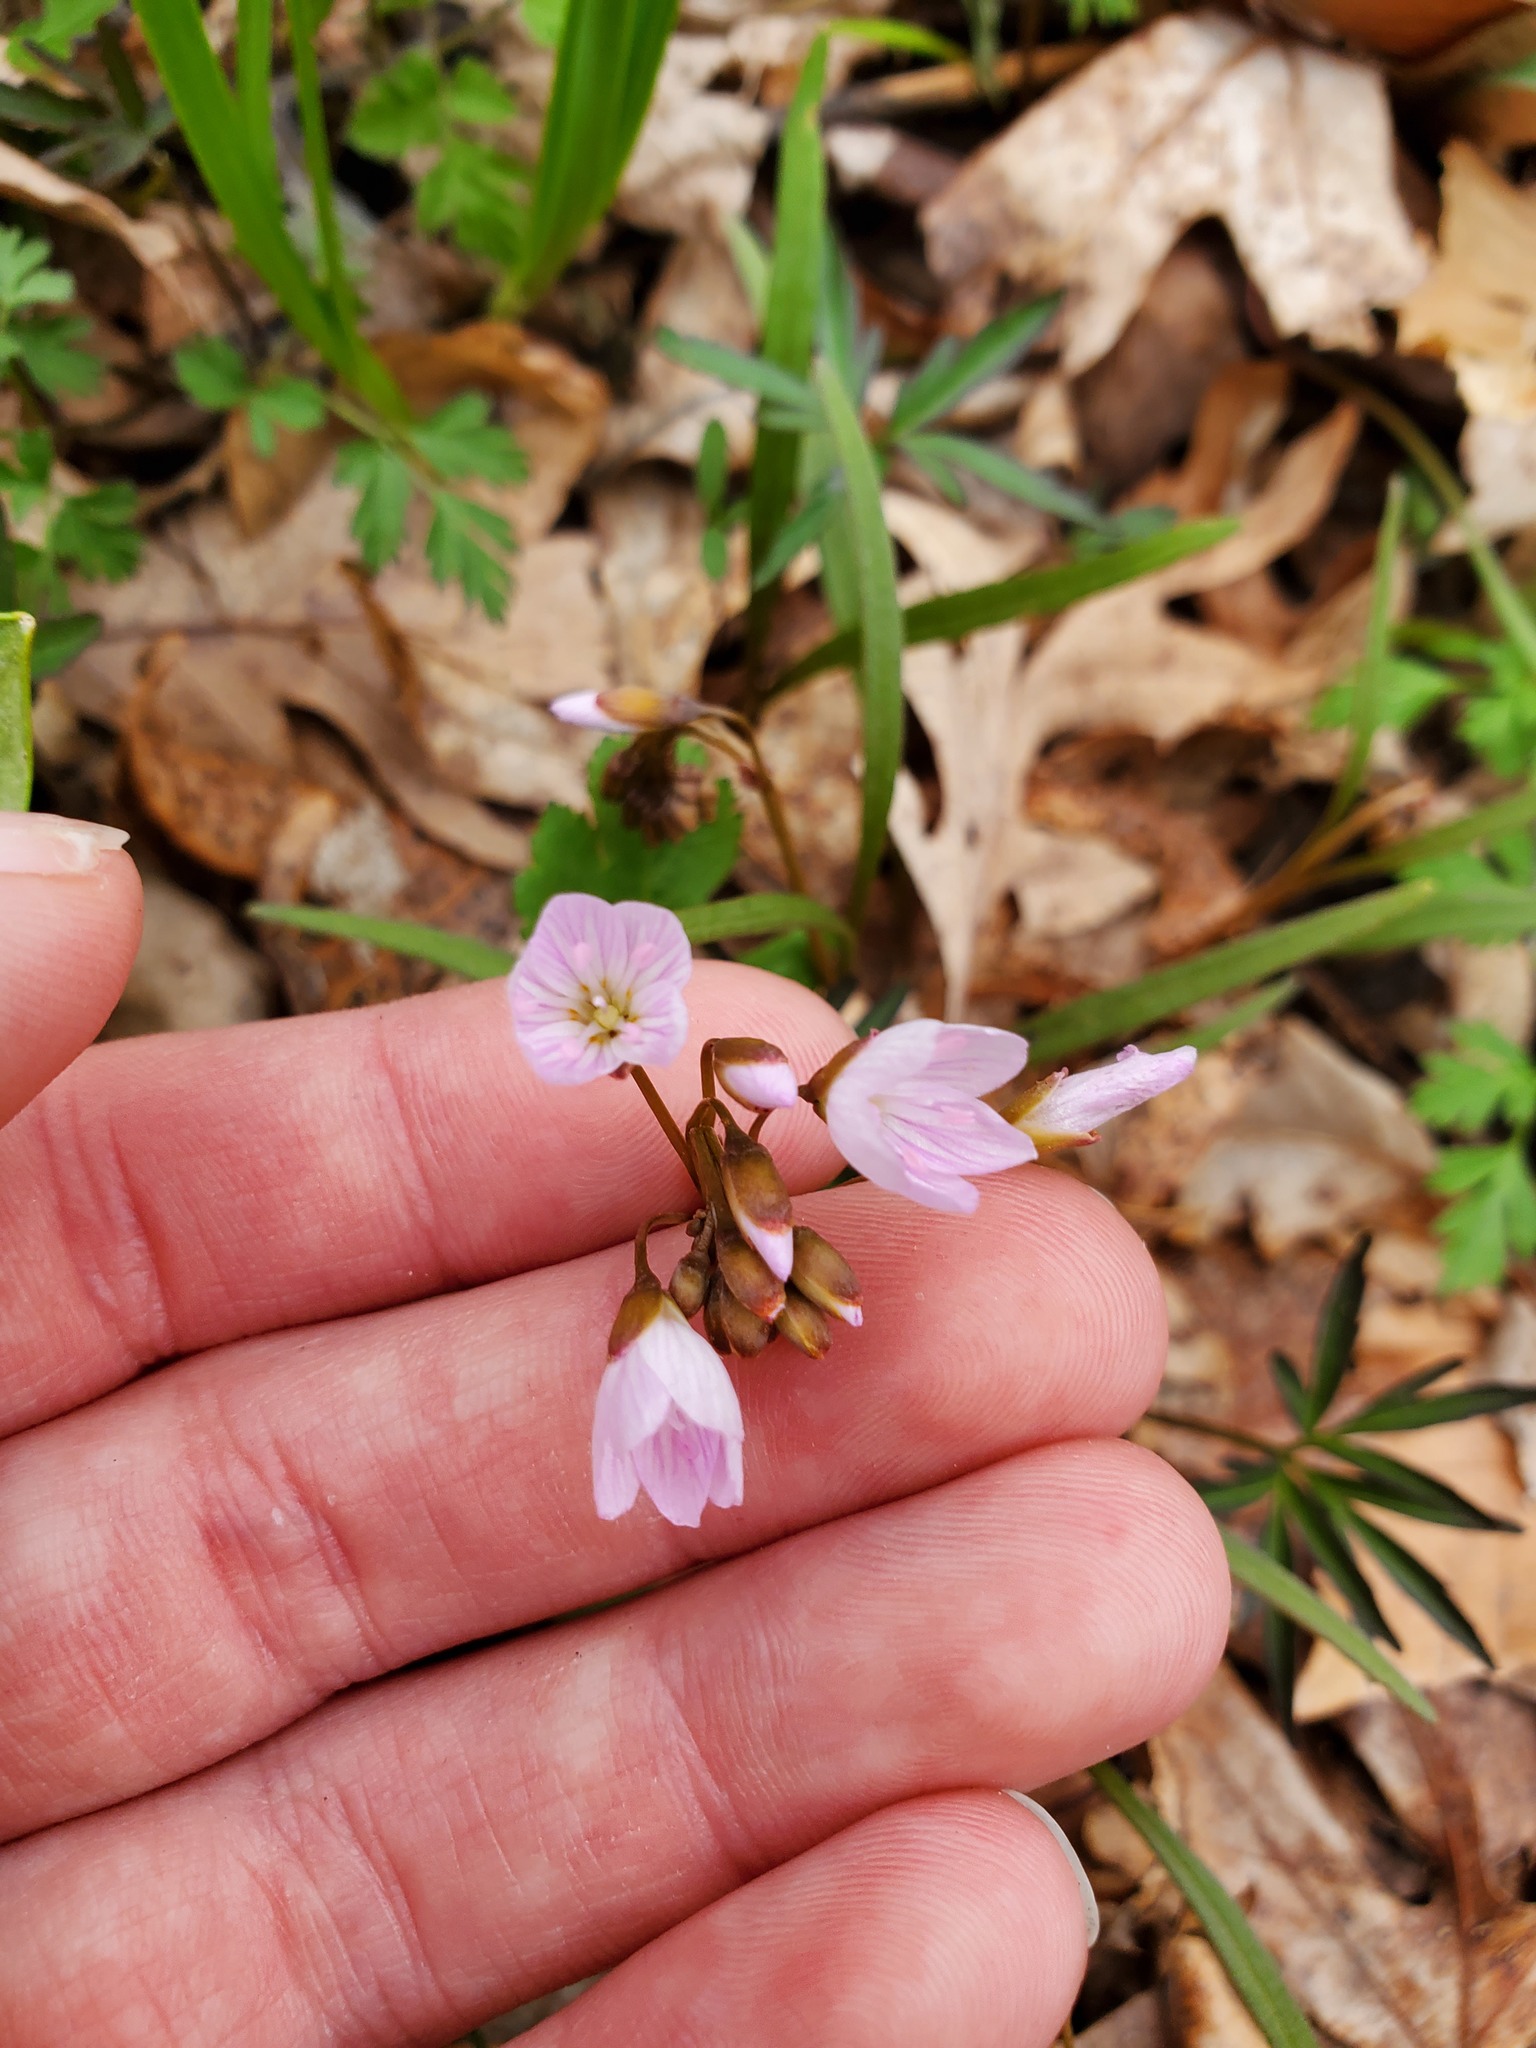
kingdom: Plantae
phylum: Tracheophyta
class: Magnoliopsida
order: Caryophyllales
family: Montiaceae
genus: Claytonia
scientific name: Claytonia virginica
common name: Virginia springbeauty
